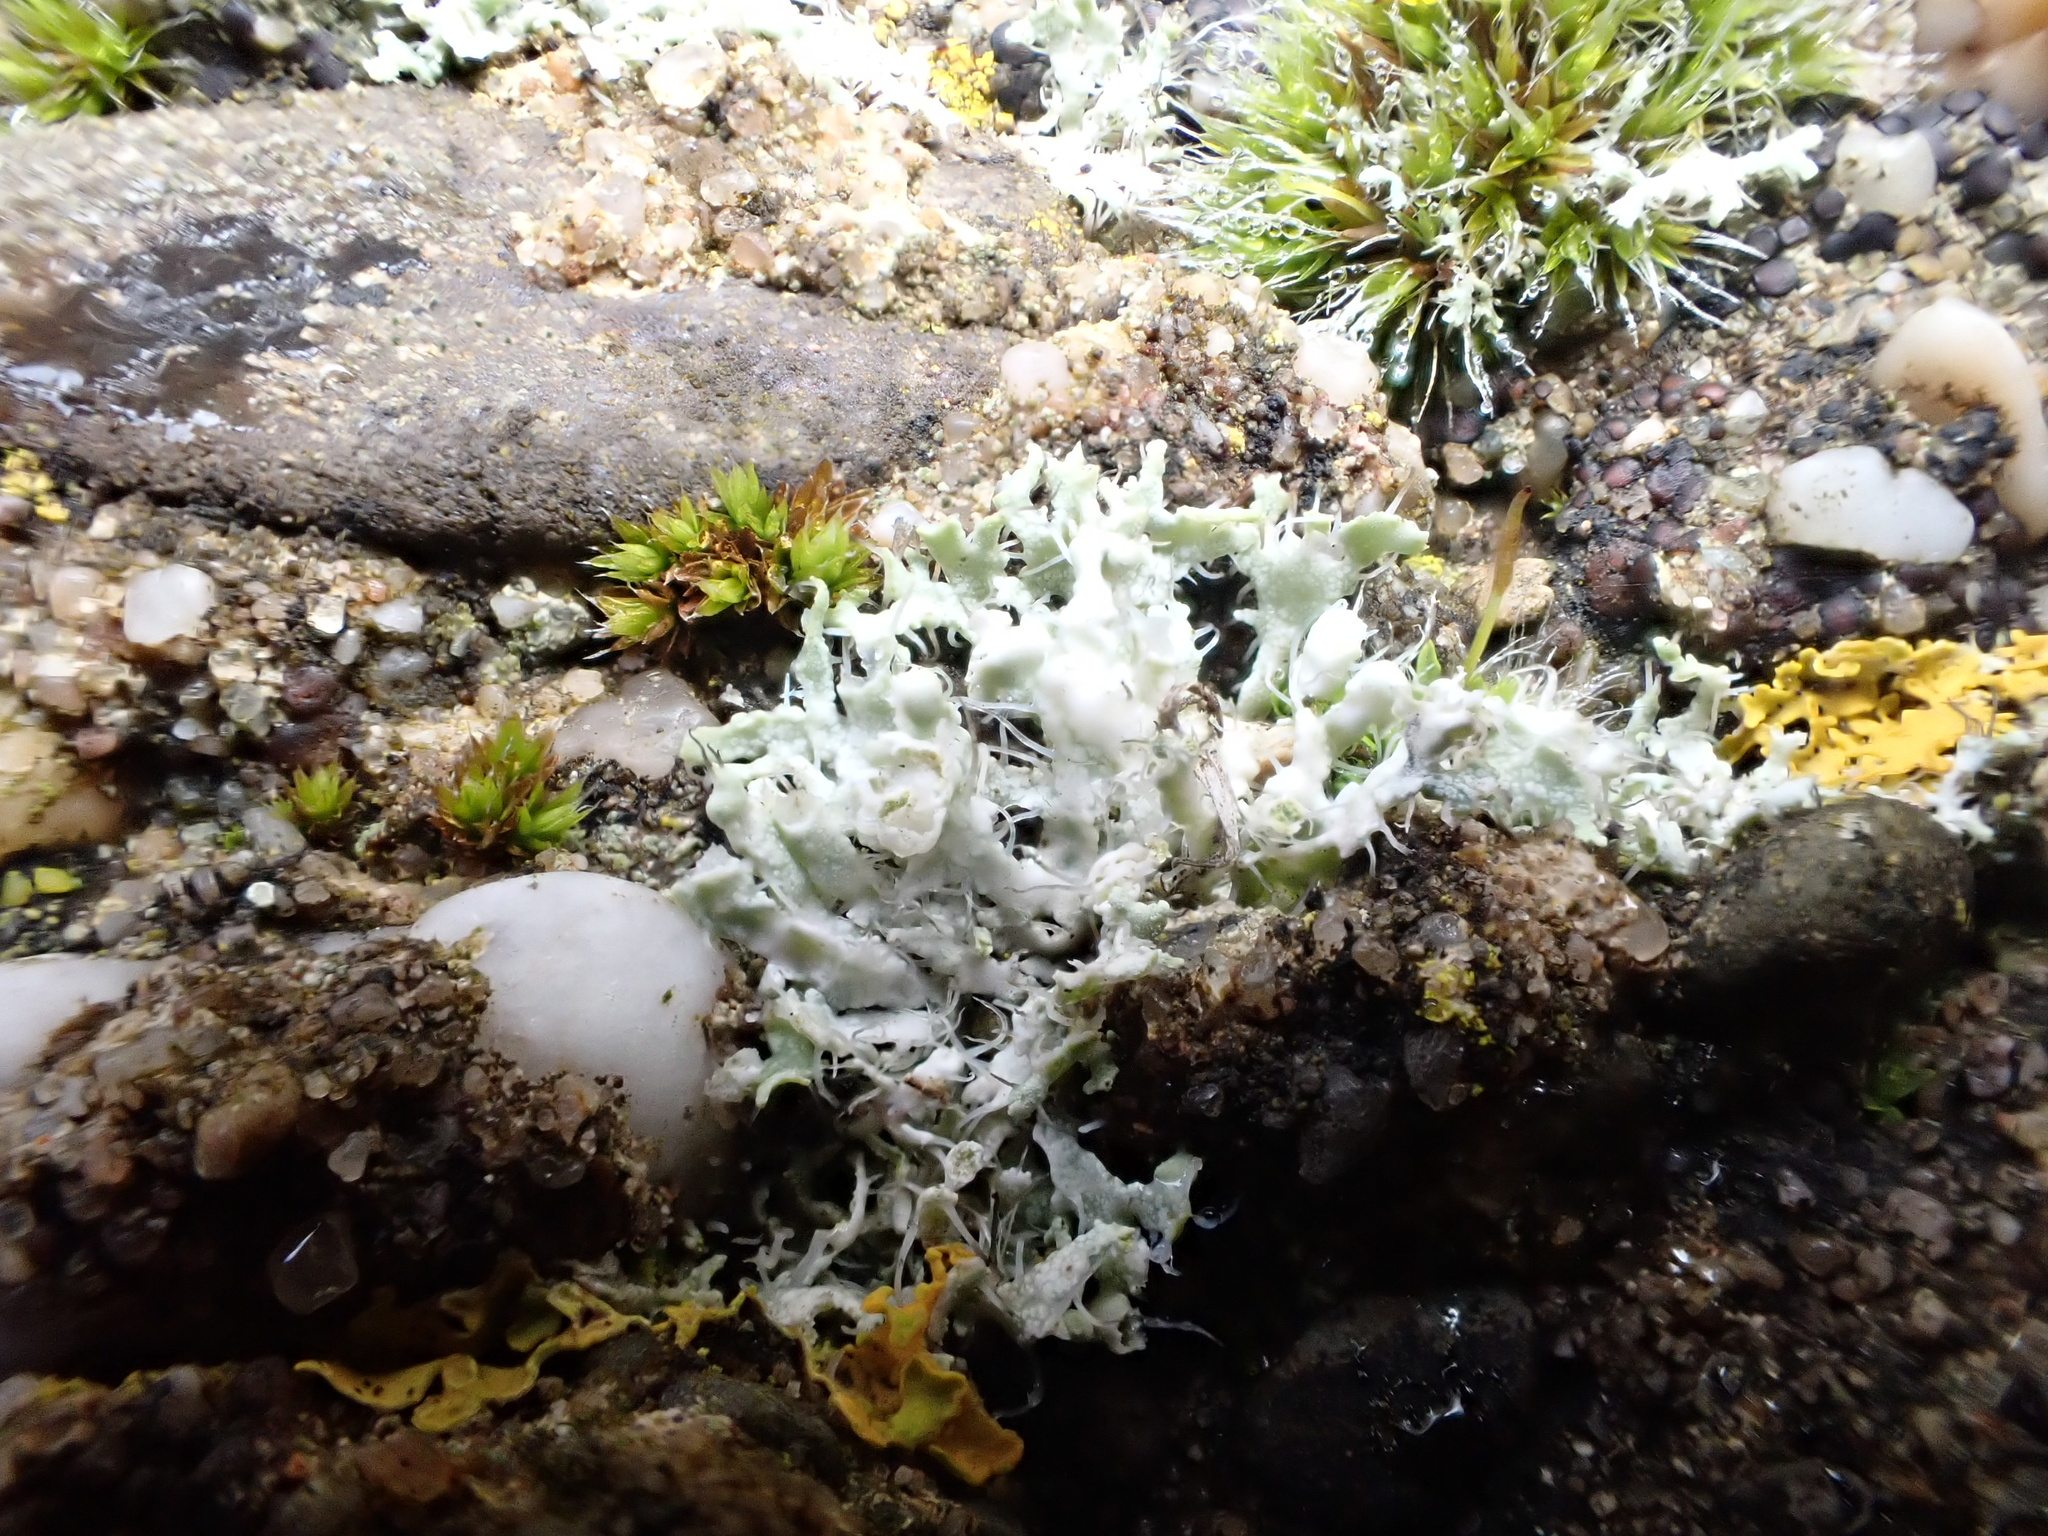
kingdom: Fungi
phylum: Ascomycota
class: Lecanoromycetes
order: Caliciales
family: Physciaceae
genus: Physcia
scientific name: Physcia adscendens
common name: Hooded rosette lichen
